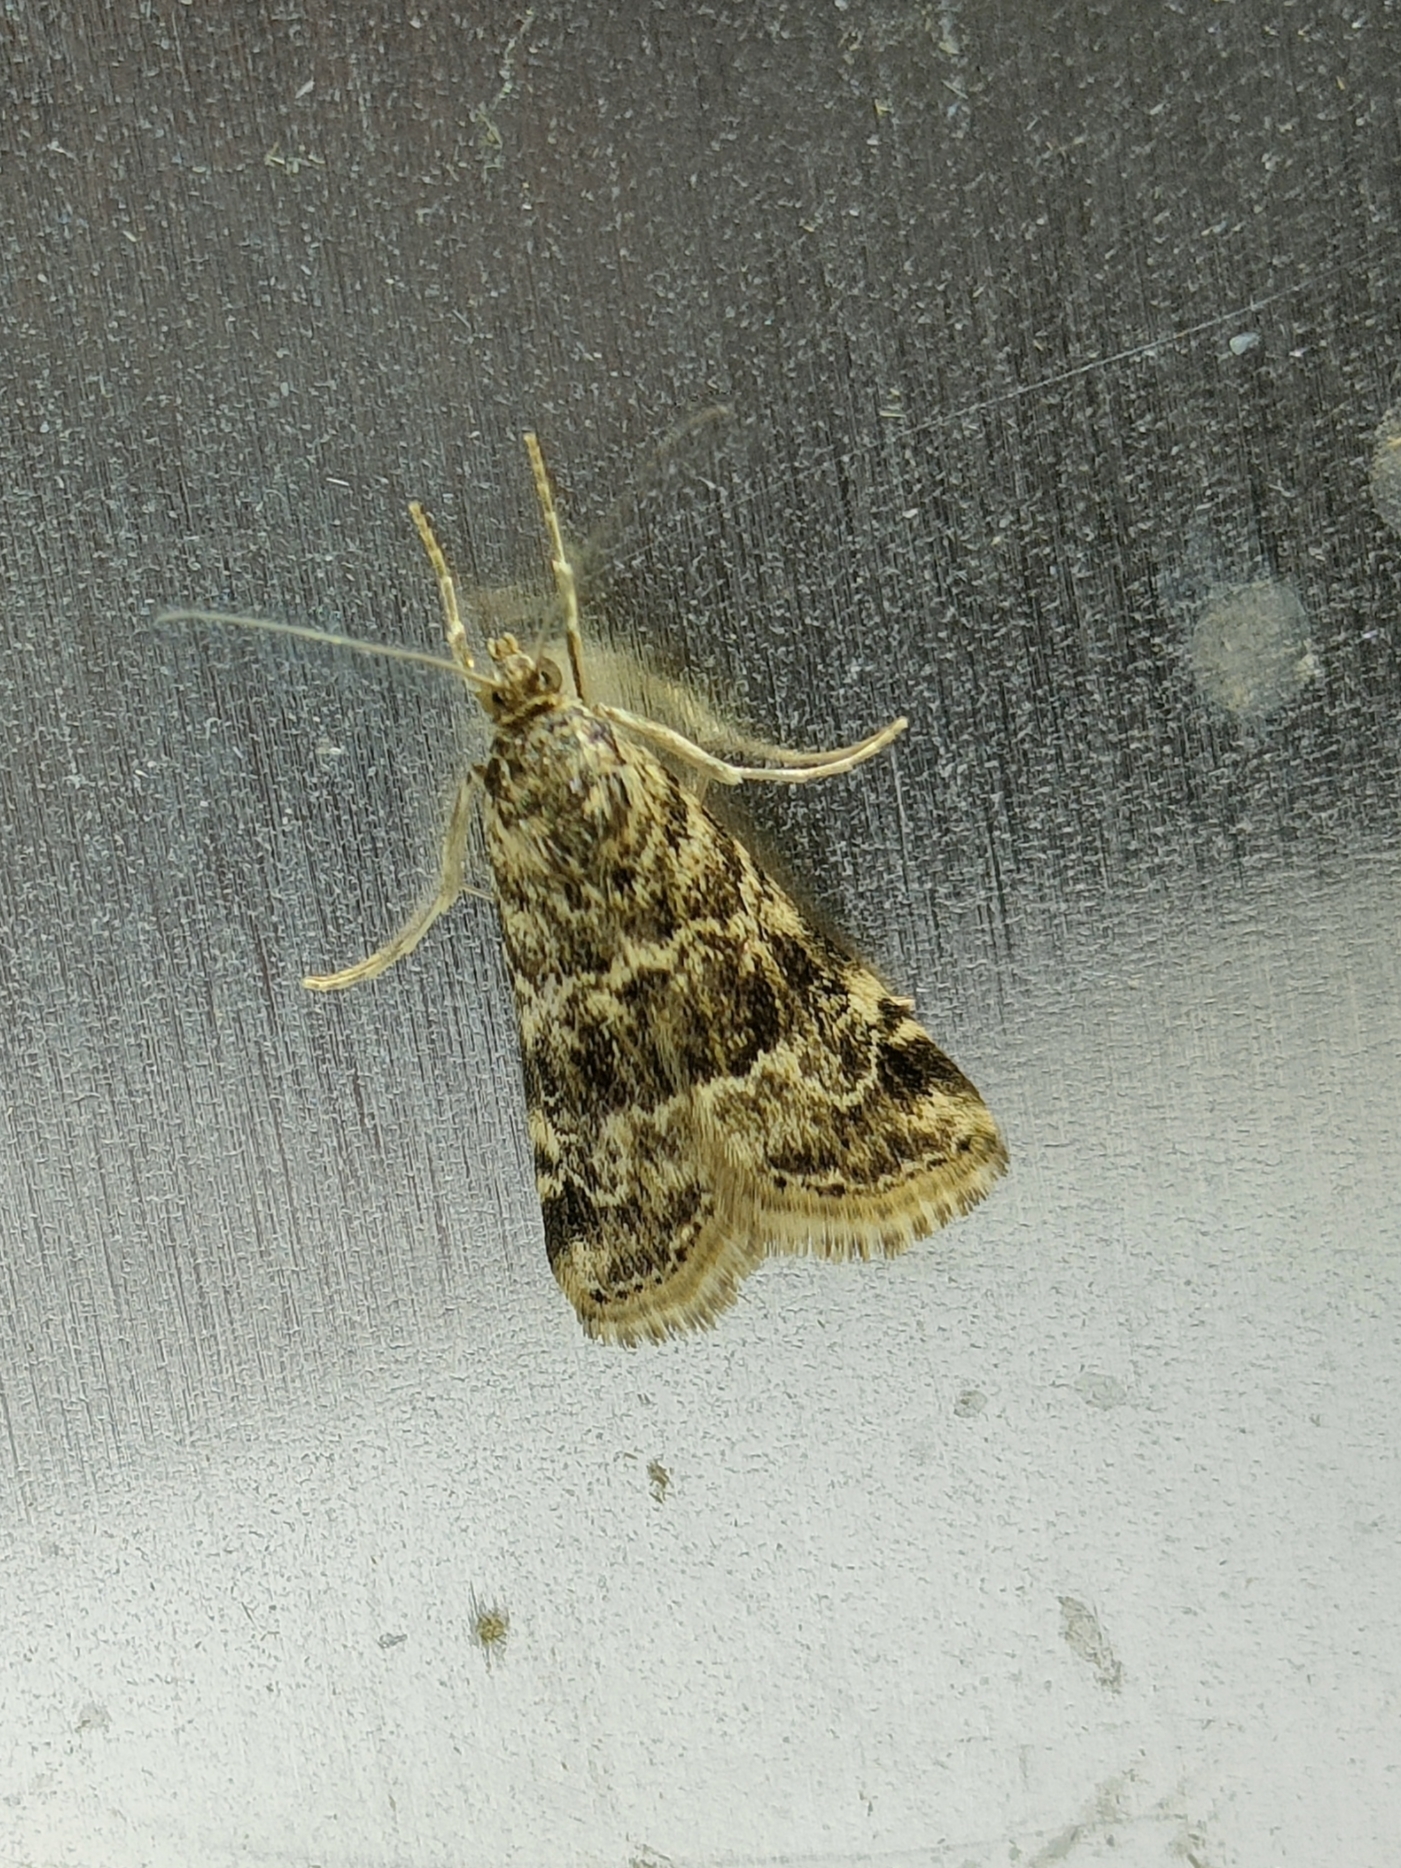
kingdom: Animalia
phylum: Arthropoda
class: Insecta
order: Lepidoptera
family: Crambidae
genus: Hellula
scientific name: Hellula undalis
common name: Cabbage webworm
